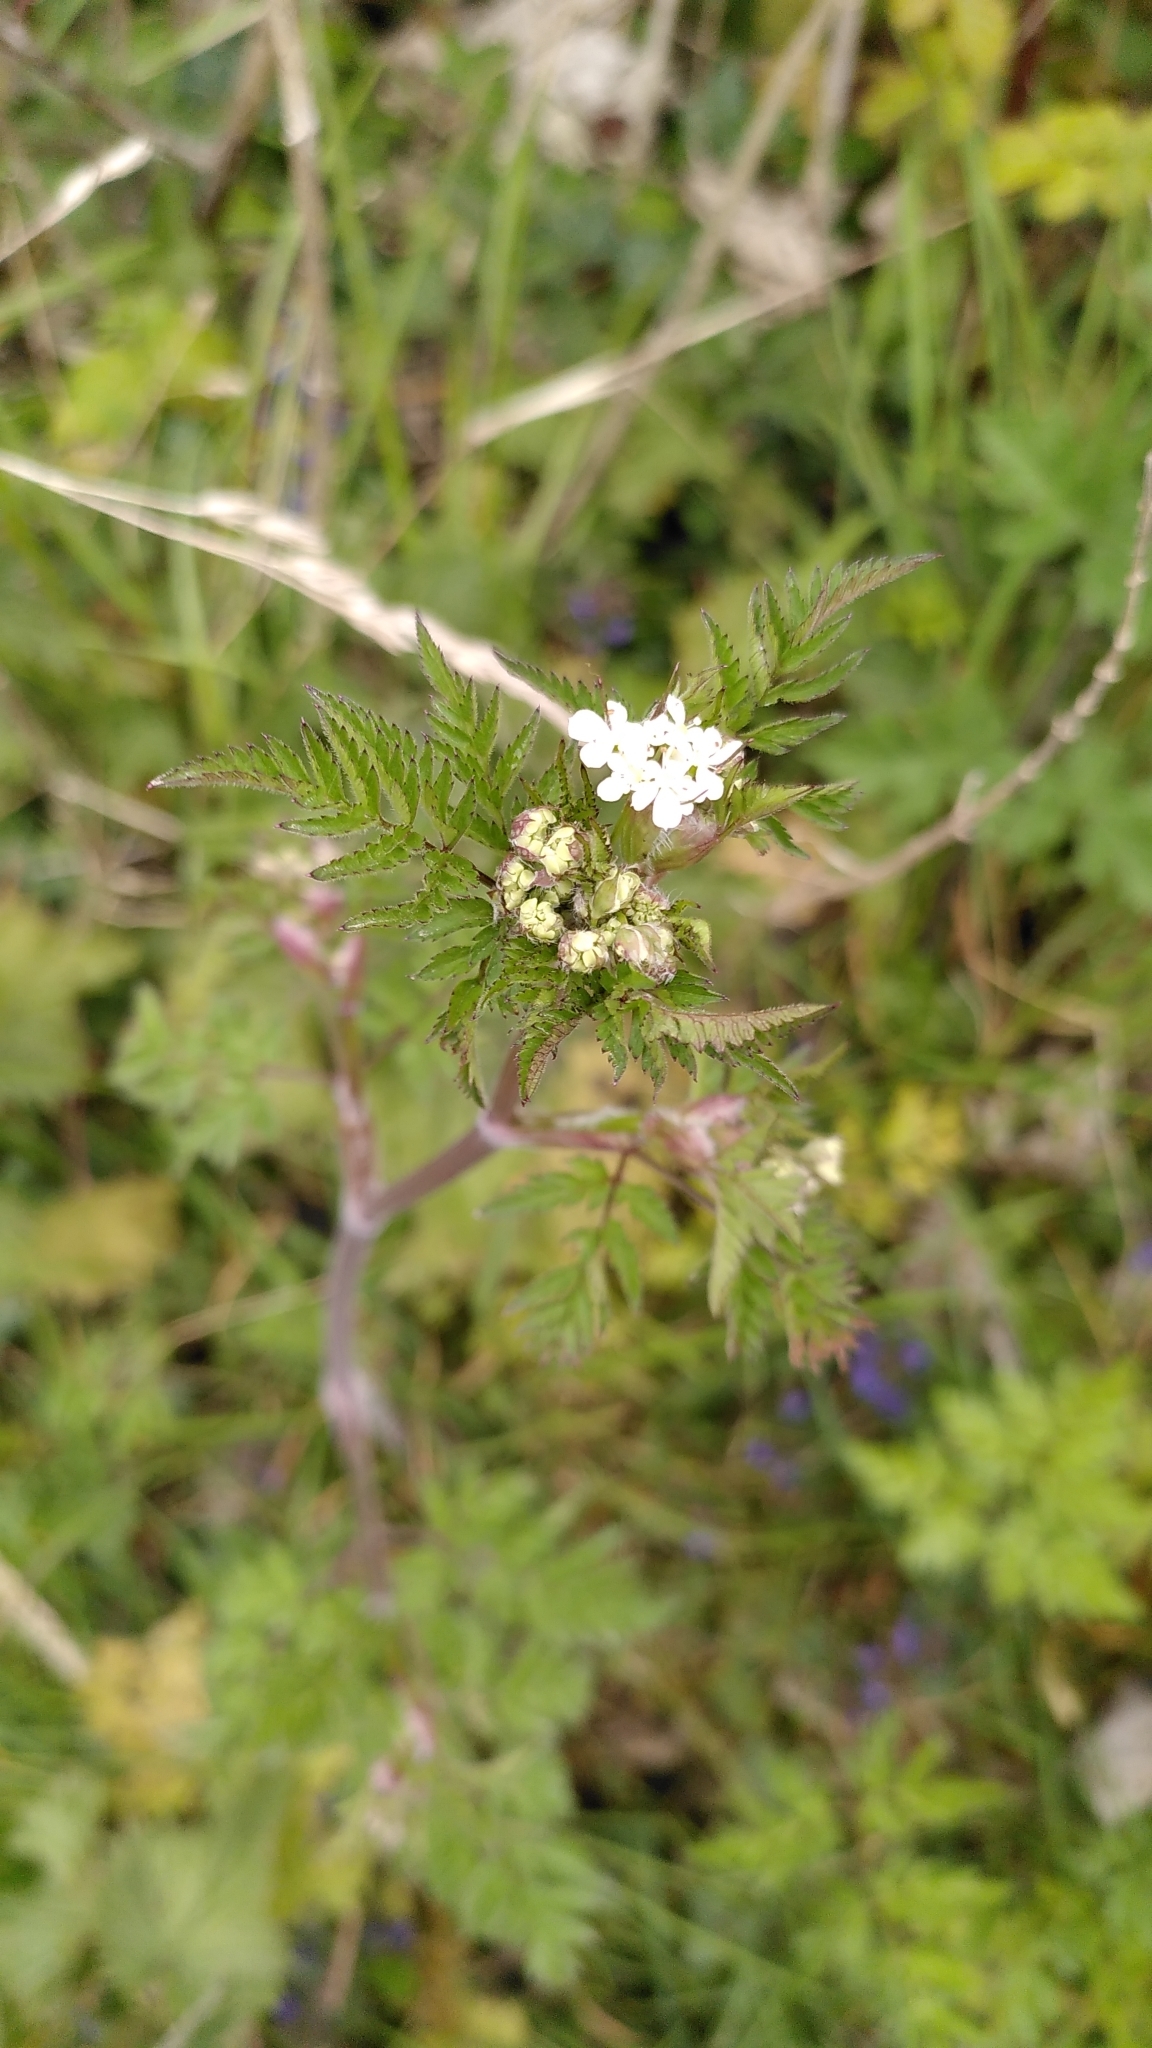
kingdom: Plantae
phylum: Tracheophyta
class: Magnoliopsida
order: Apiales
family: Apiaceae
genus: Anthriscus
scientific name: Anthriscus sylvestris
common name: Cow parsley
